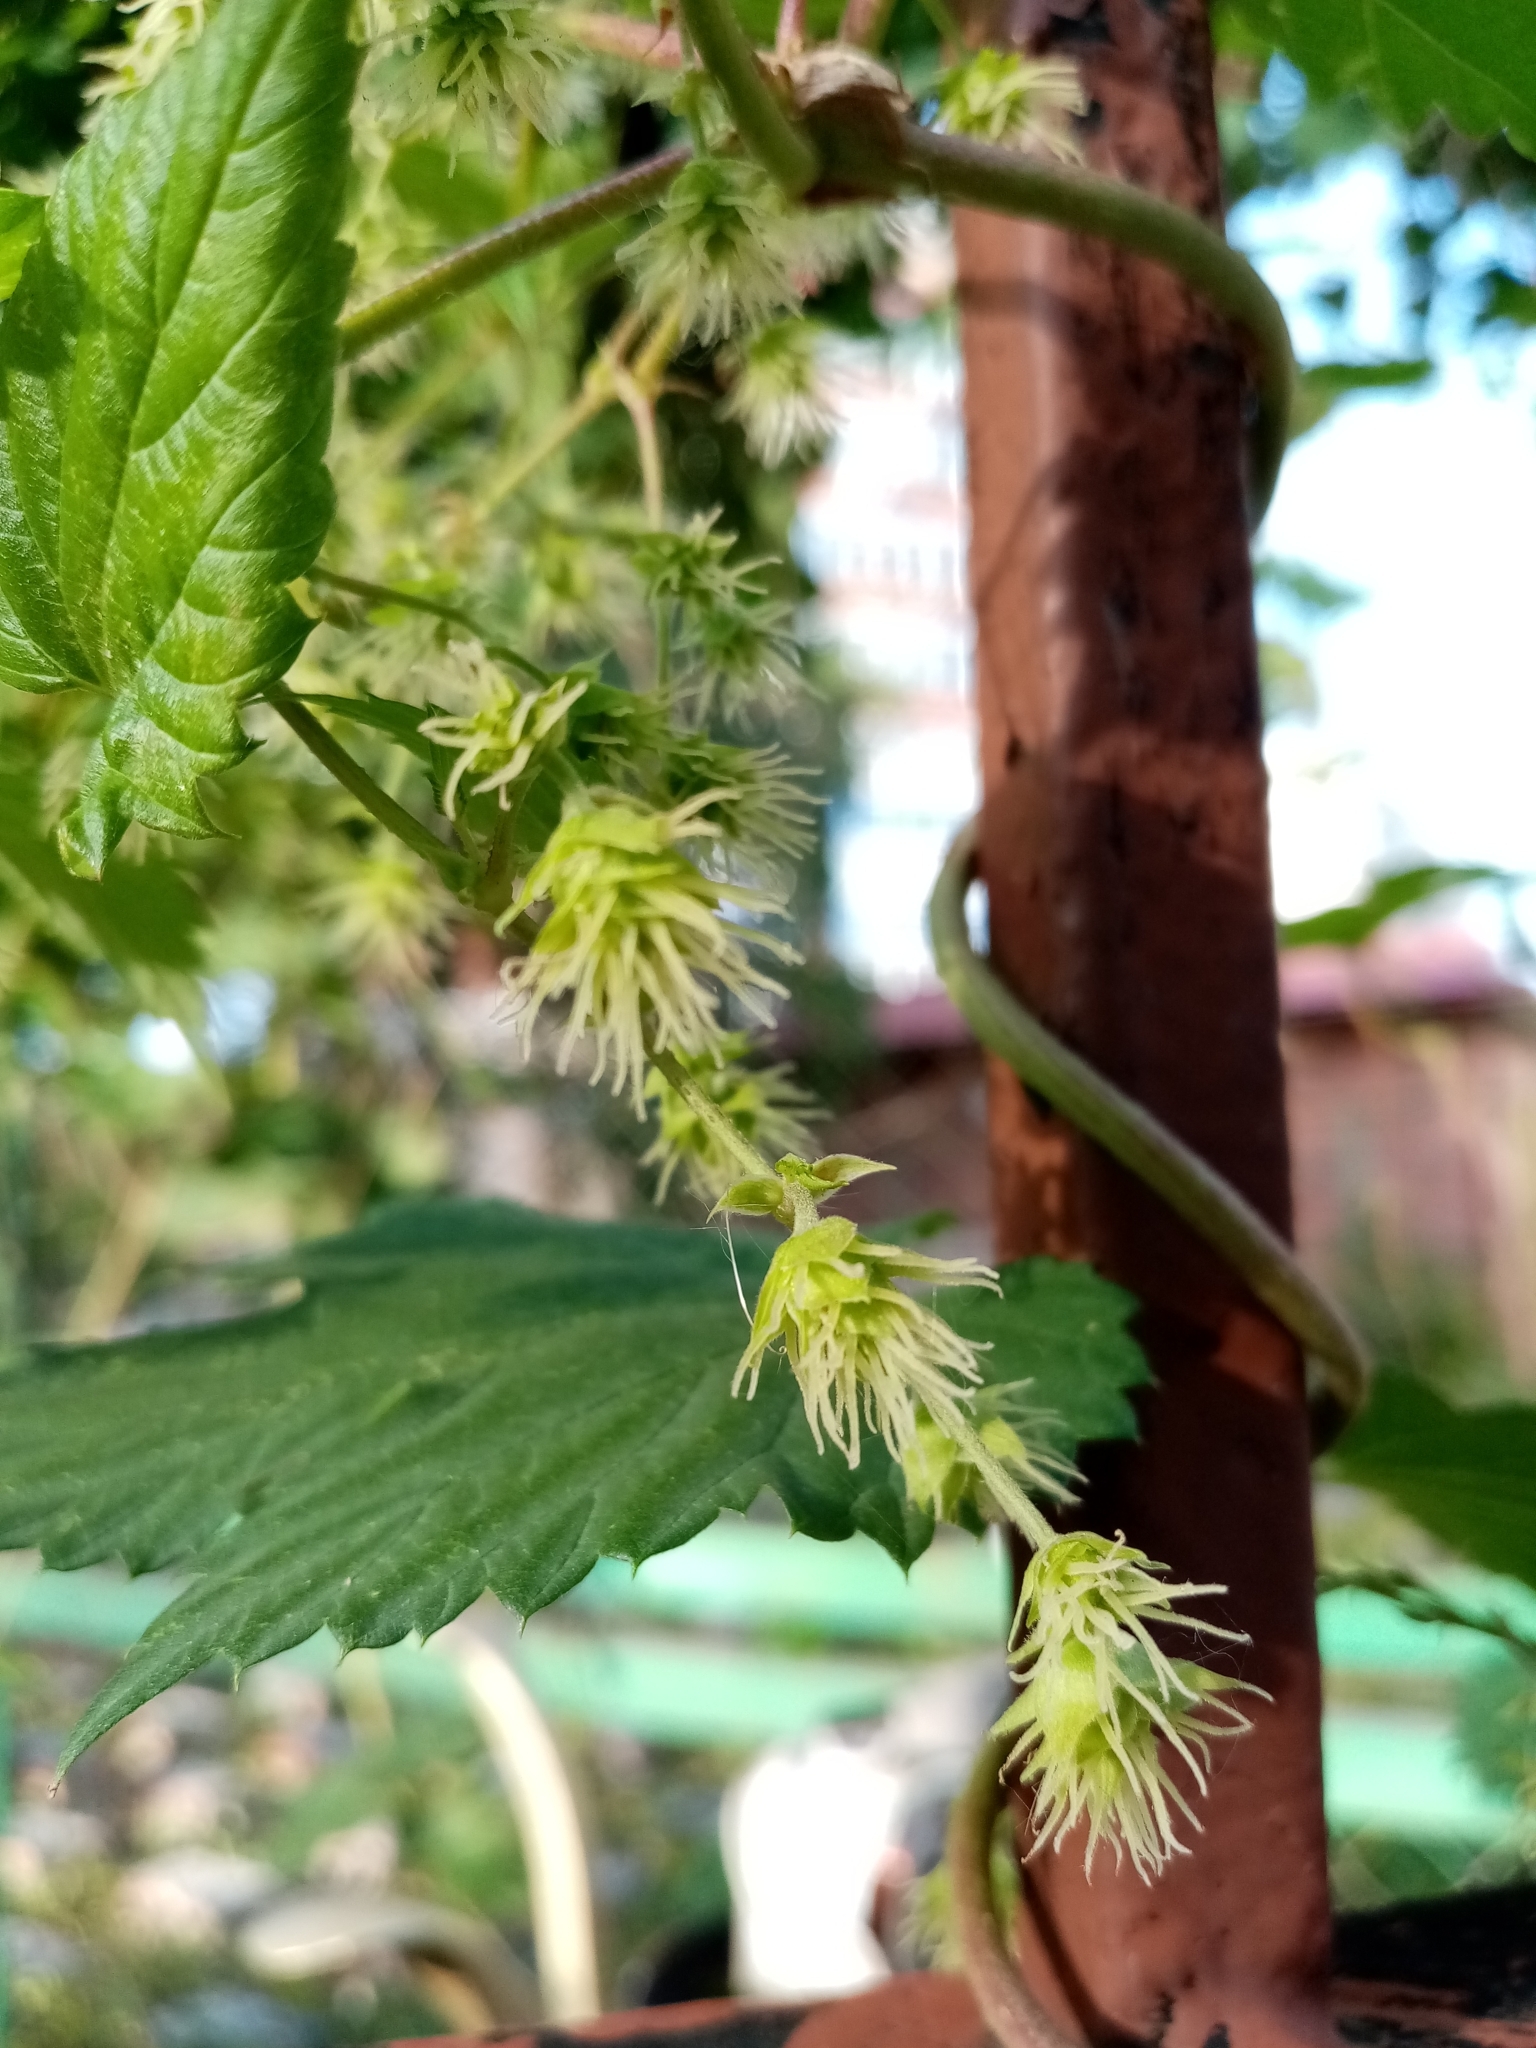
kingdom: Plantae
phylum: Tracheophyta
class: Magnoliopsida
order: Rosales
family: Cannabaceae
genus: Humulus
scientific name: Humulus lupulus
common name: Hop
